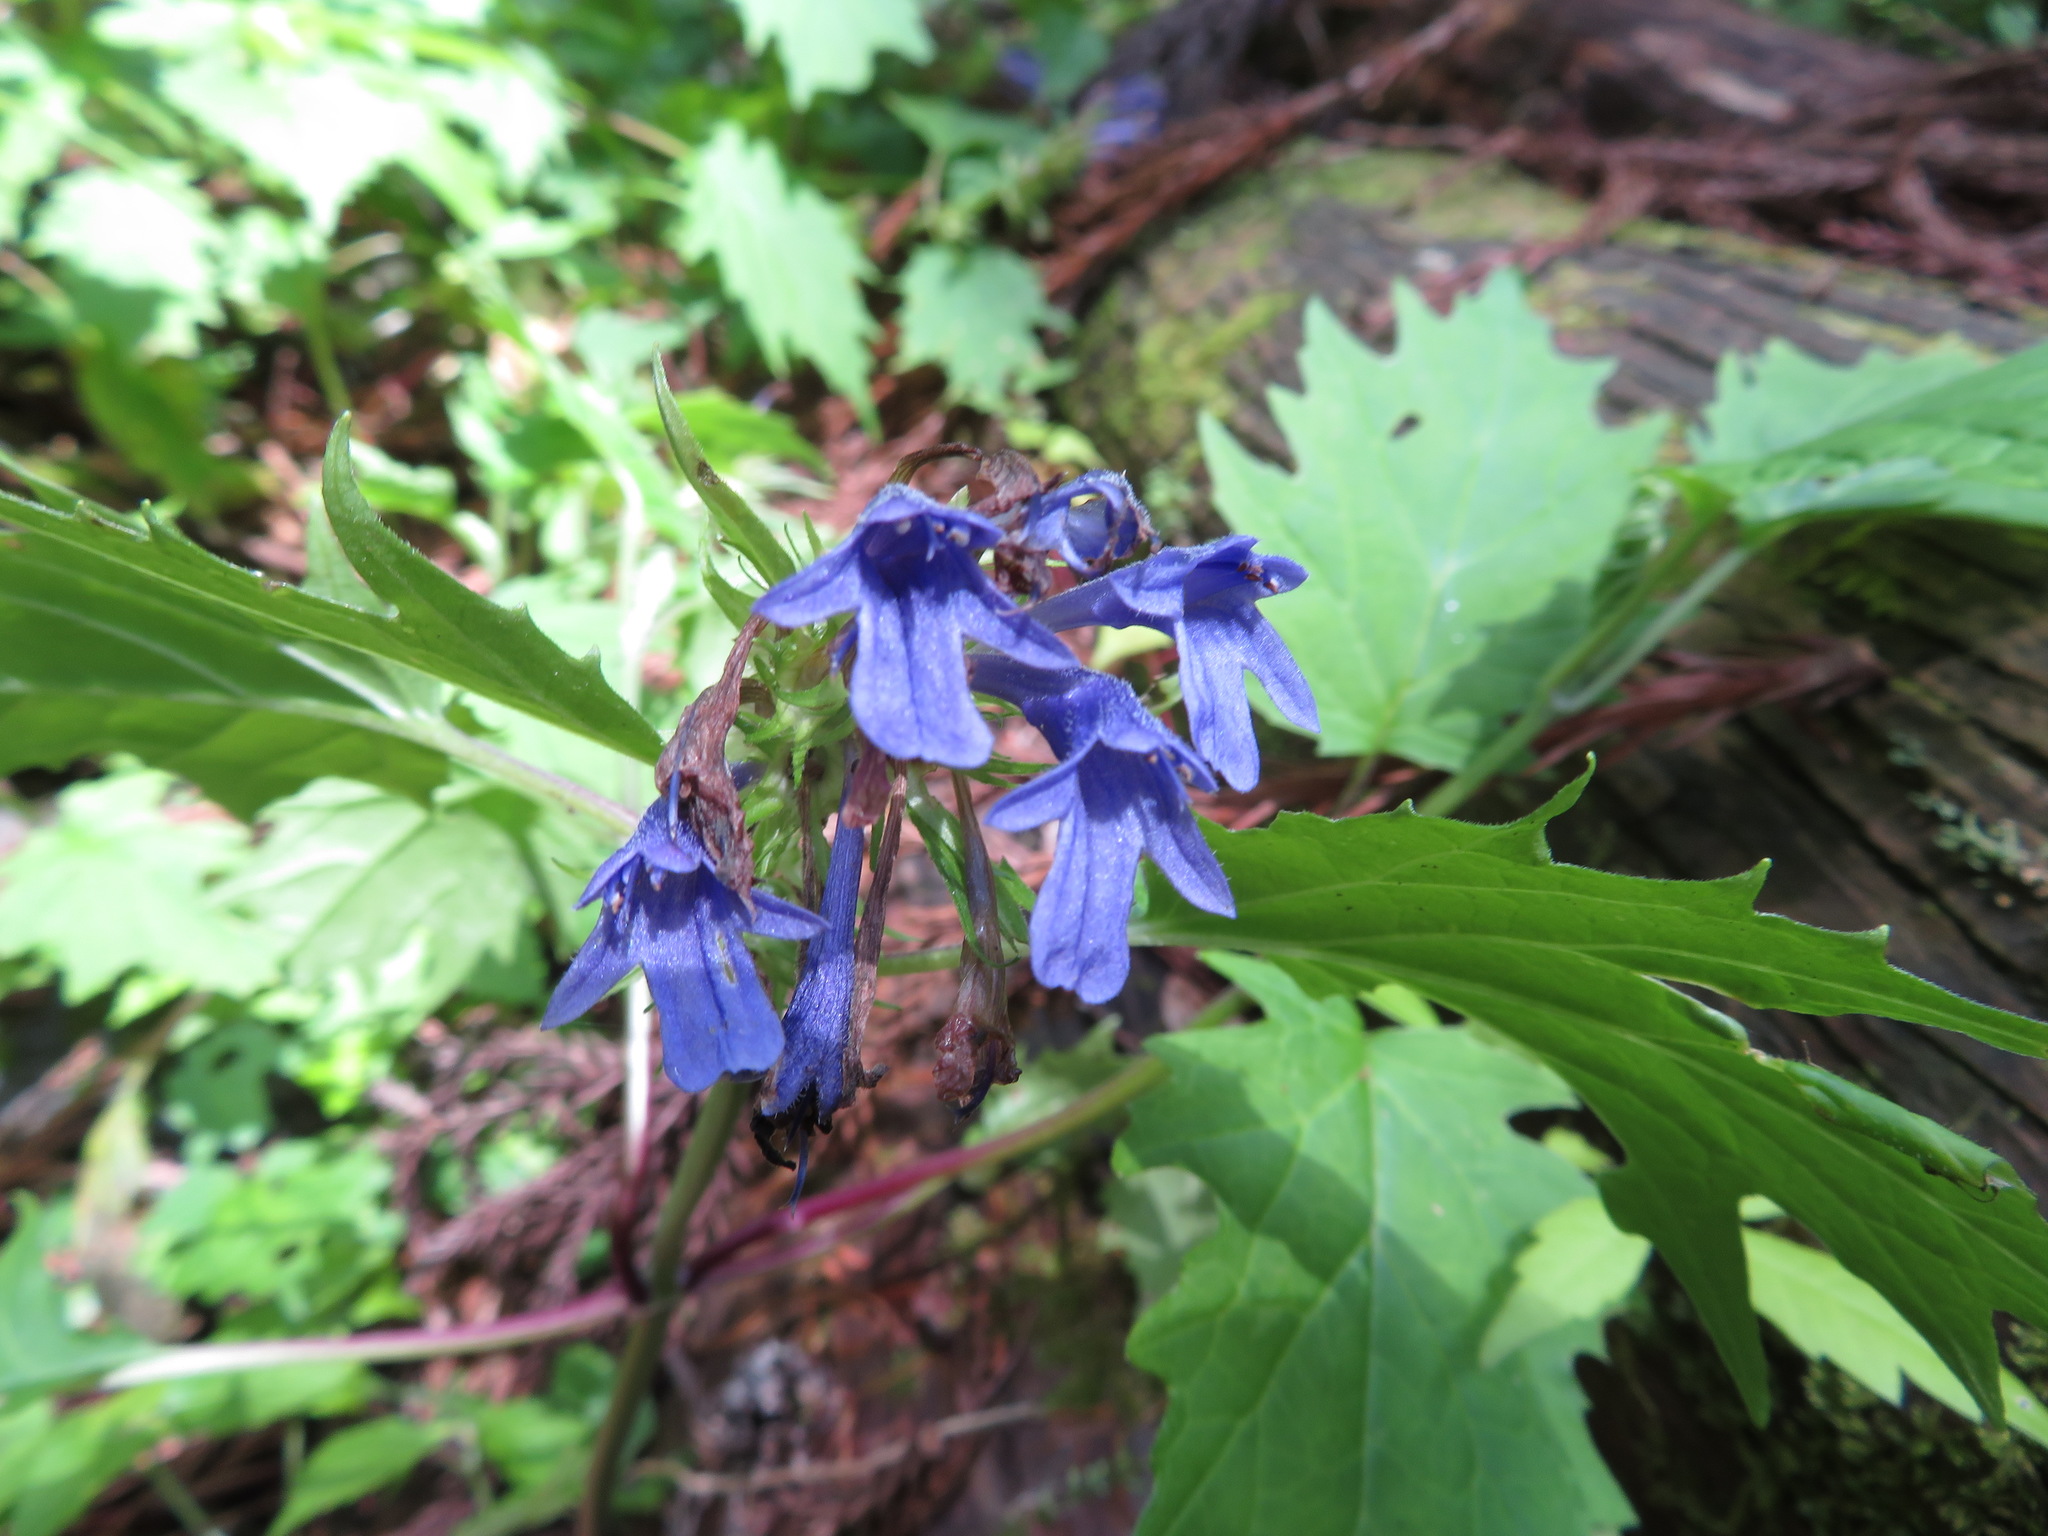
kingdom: Plantae
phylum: Tracheophyta
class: Magnoliopsida
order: Lamiales
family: Lamiaceae
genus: Ajuga
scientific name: Ajuga incisa
